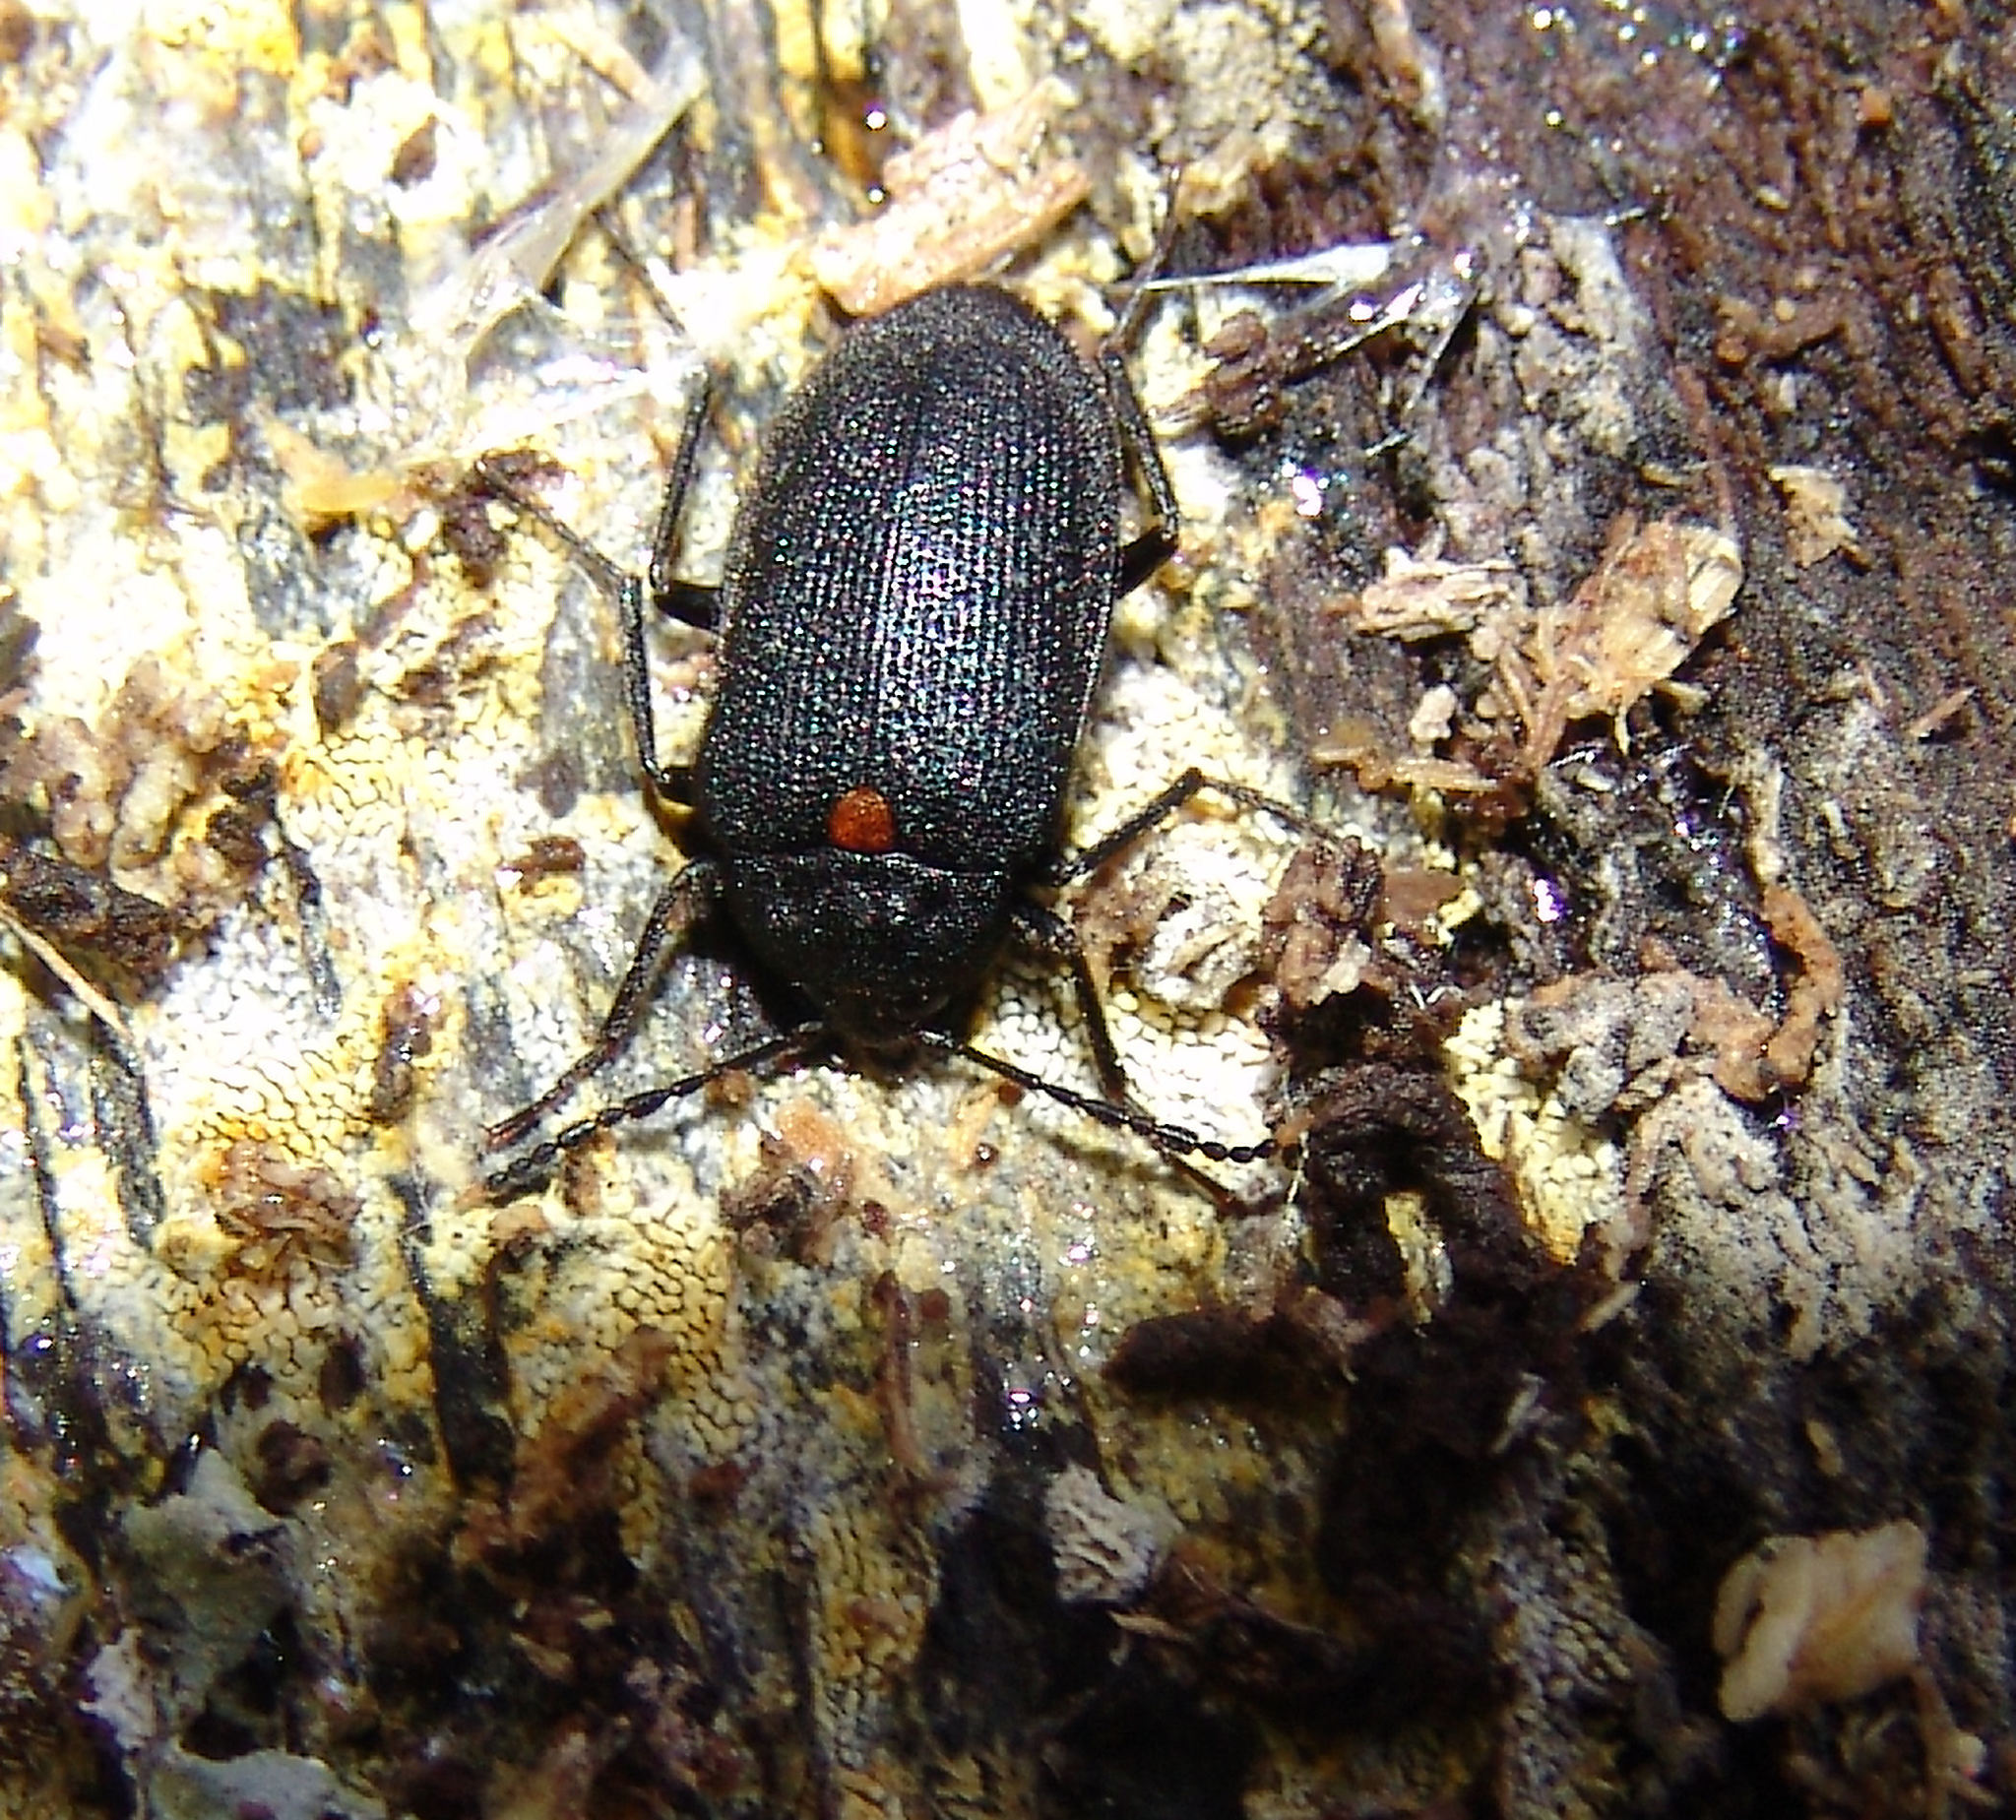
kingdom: Animalia
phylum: Arthropoda
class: Insecta
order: Coleoptera
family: Tetratomidae
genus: Penthe
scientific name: Penthe obliquata
